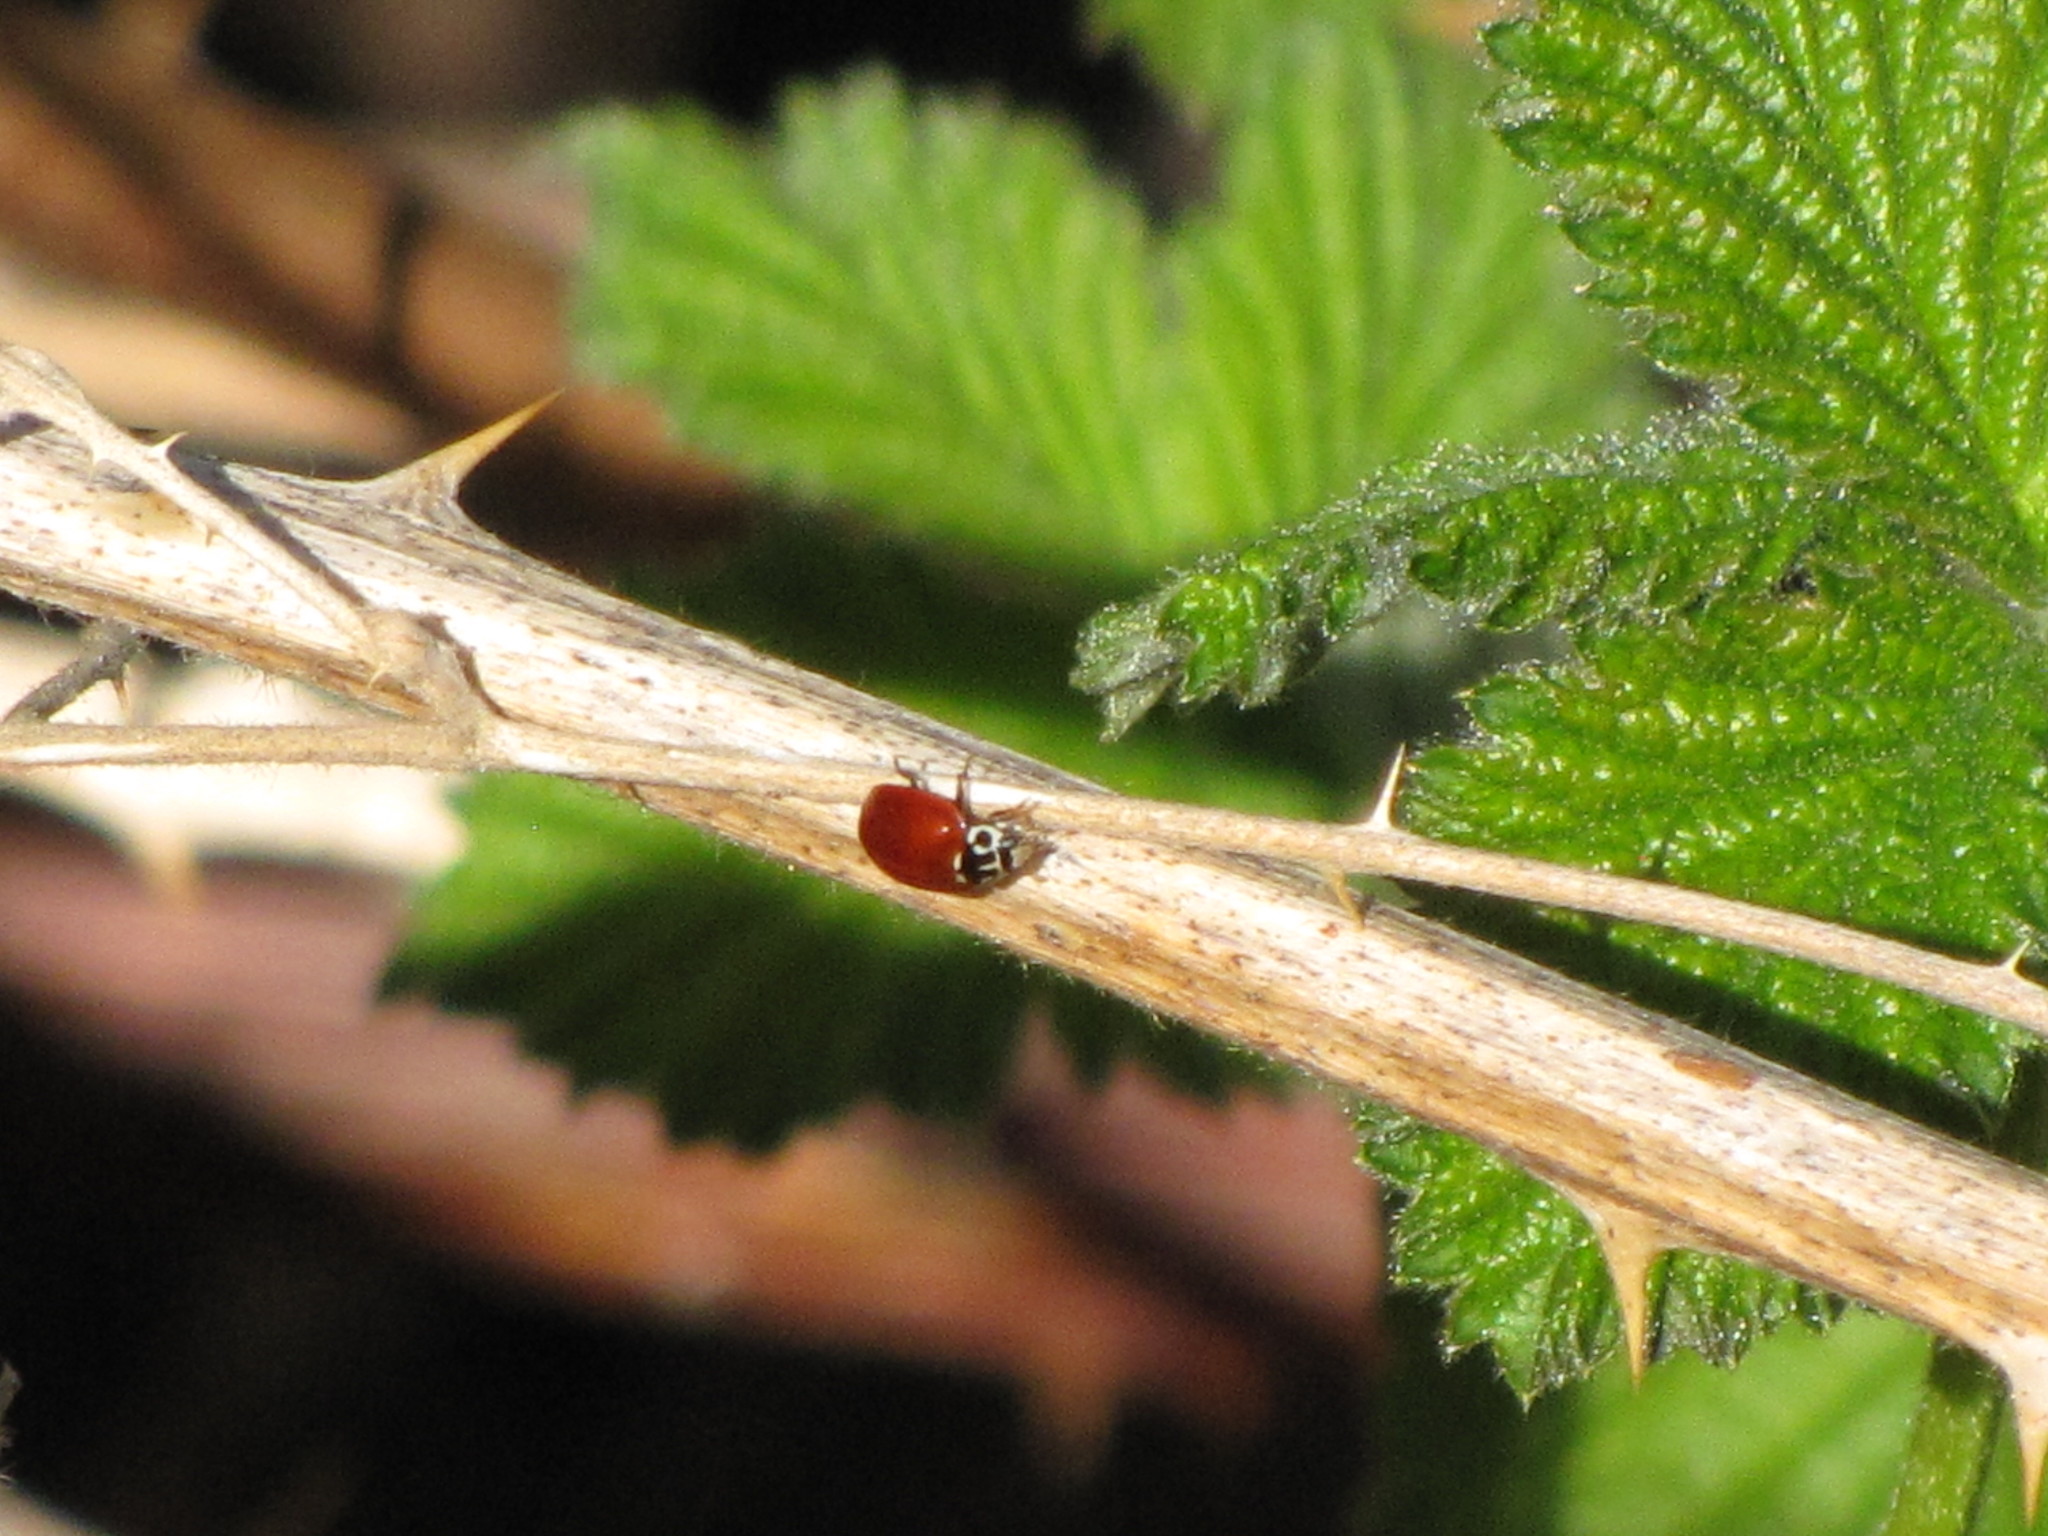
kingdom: Animalia
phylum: Arthropoda
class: Insecta
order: Coleoptera
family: Coccinellidae
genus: Cycloneda
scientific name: Cycloneda polita
